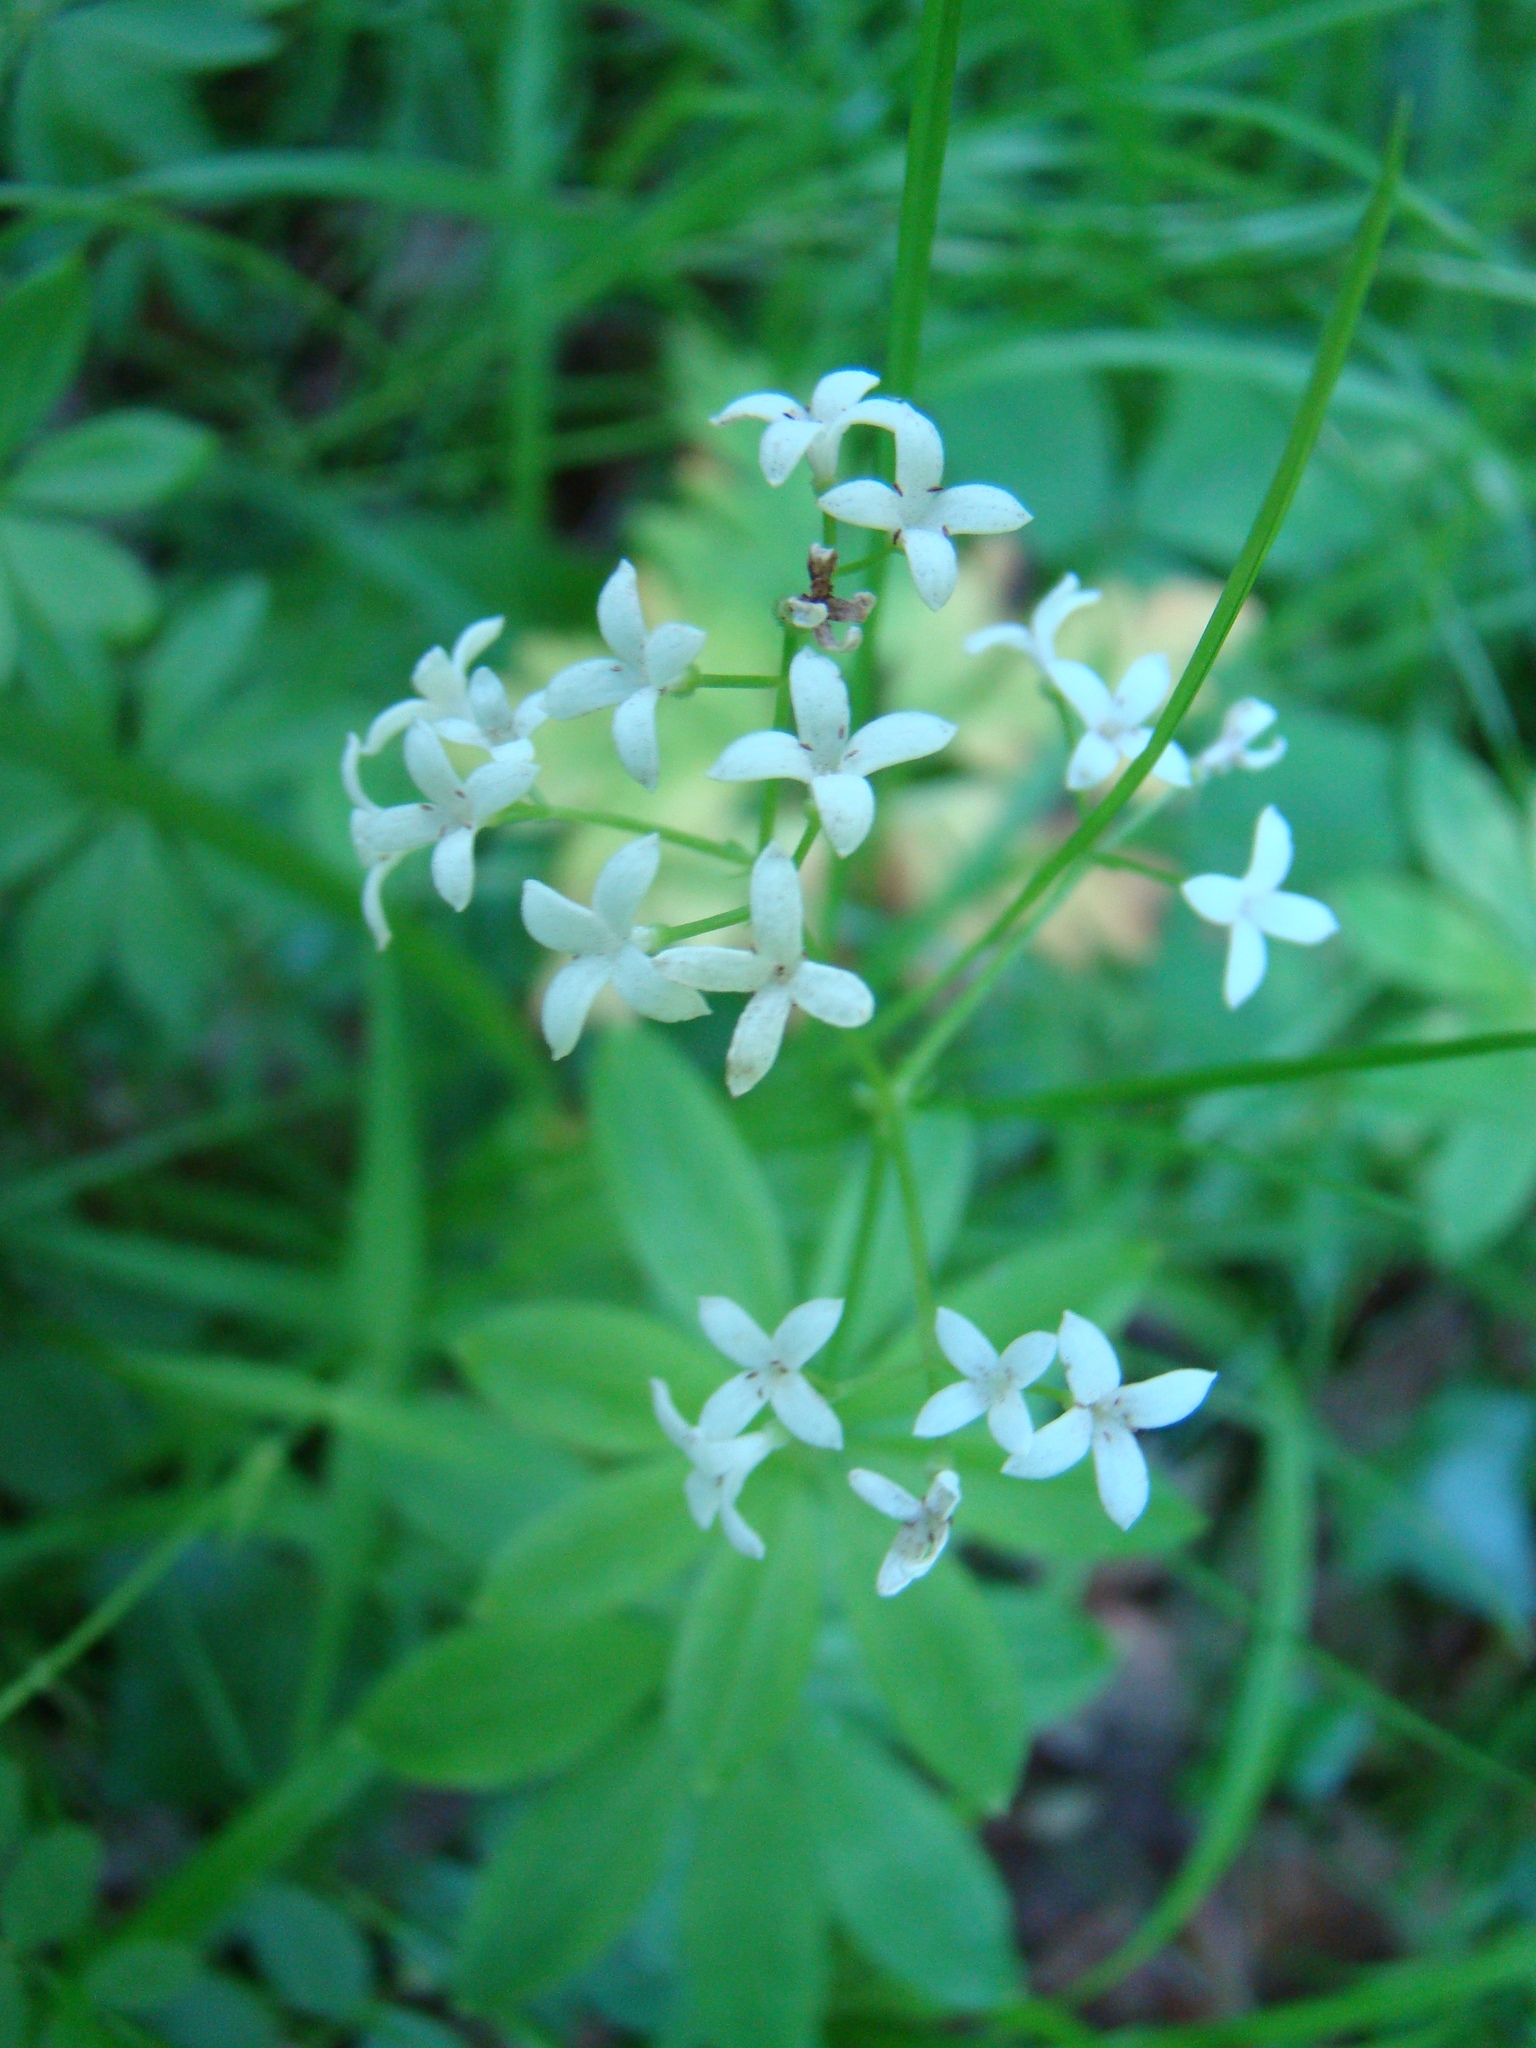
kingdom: Plantae
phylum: Tracheophyta
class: Magnoliopsida
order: Gentianales
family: Rubiaceae
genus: Galium
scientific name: Galium odoratum
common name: Sweet woodruff
